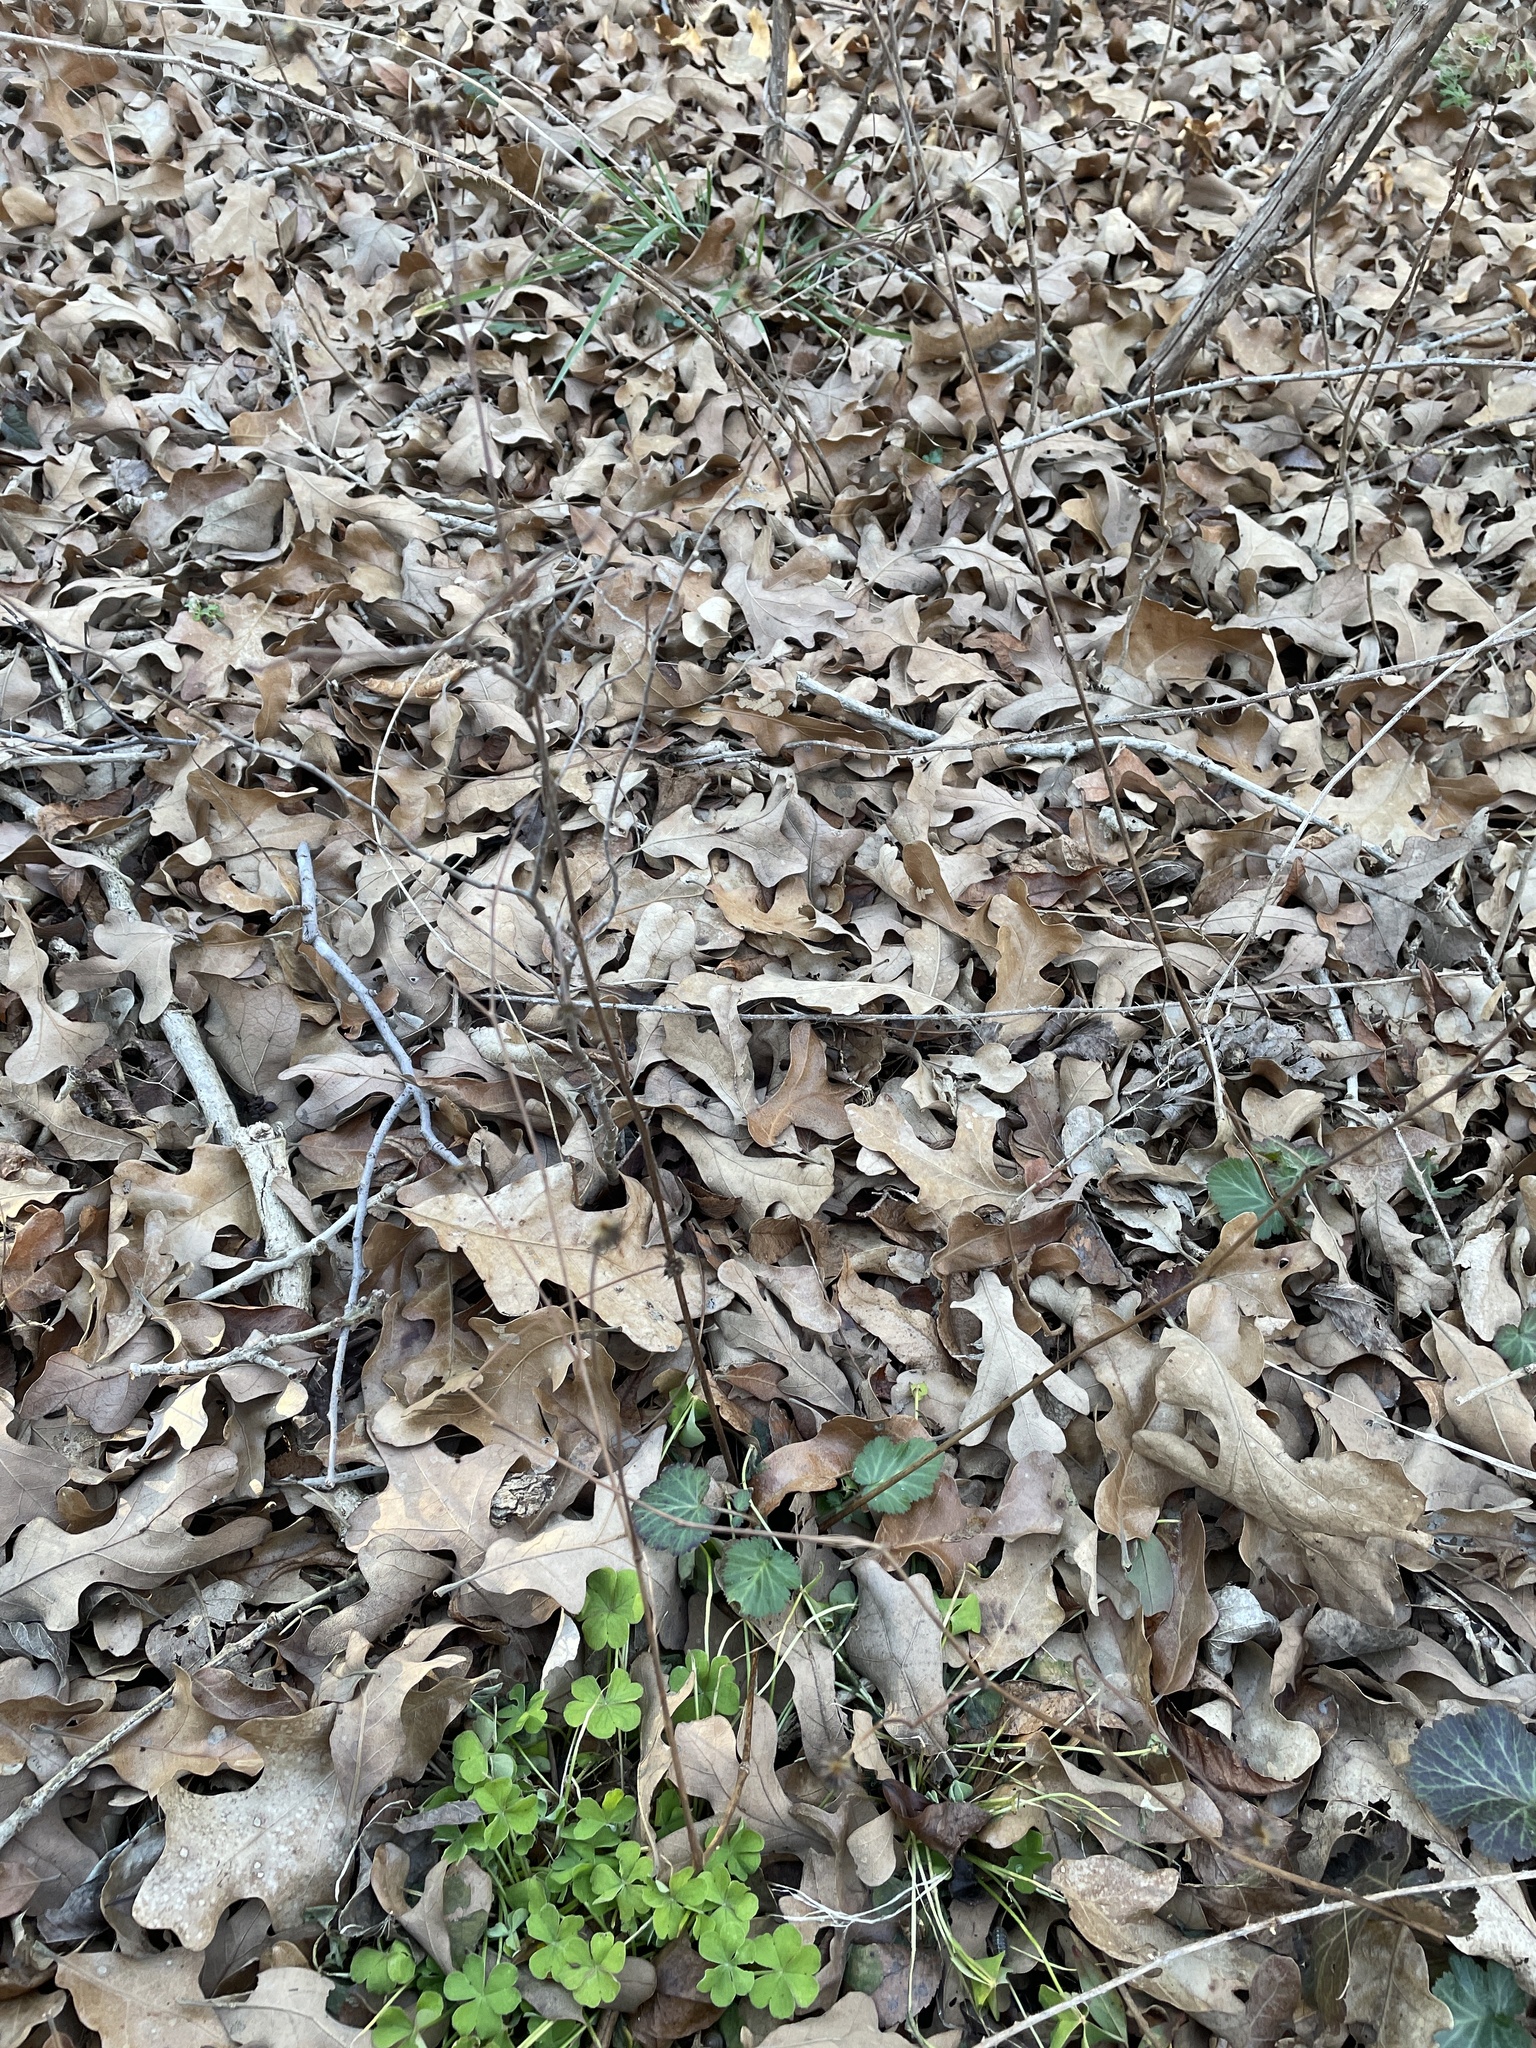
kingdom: Plantae
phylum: Tracheophyta
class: Magnoliopsida
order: Rosales
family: Rosaceae
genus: Geum
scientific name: Geum canadense
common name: White avens
